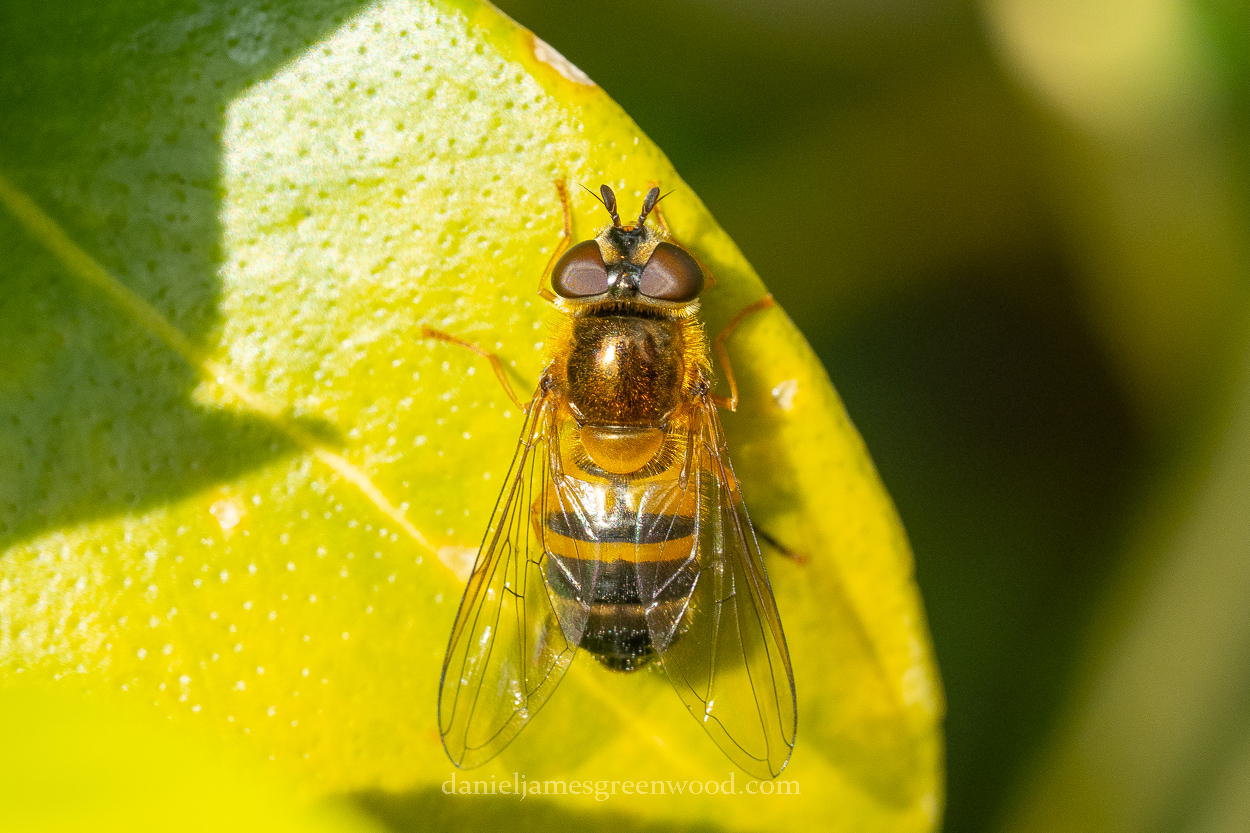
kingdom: Animalia
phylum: Arthropoda
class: Insecta
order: Diptera
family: Syrphidae
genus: Epistrophe
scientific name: Epistrophe eligans
